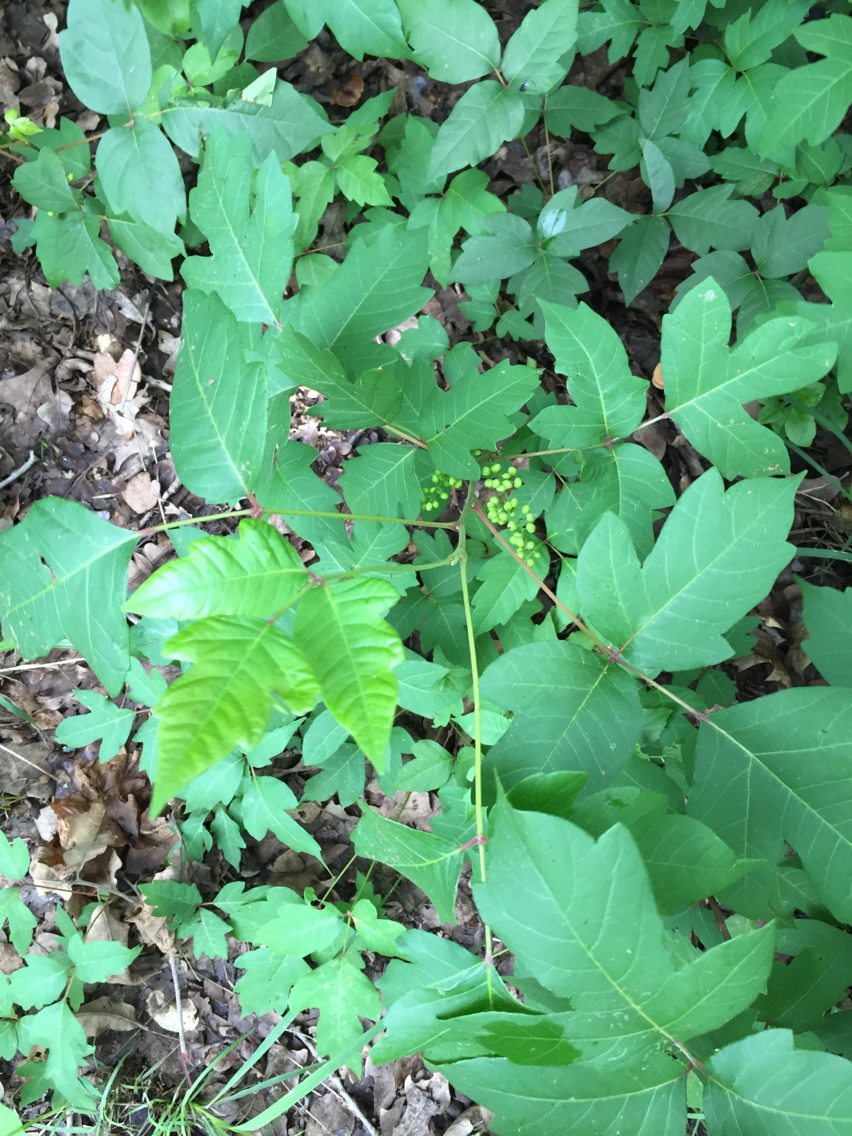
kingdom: Plantae
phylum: Tracheophyta
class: Magnoliopsida
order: Sapindales
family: Anacardiaceae
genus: Toxicodendron
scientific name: Toxicodendron radicans
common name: Poison ivy
